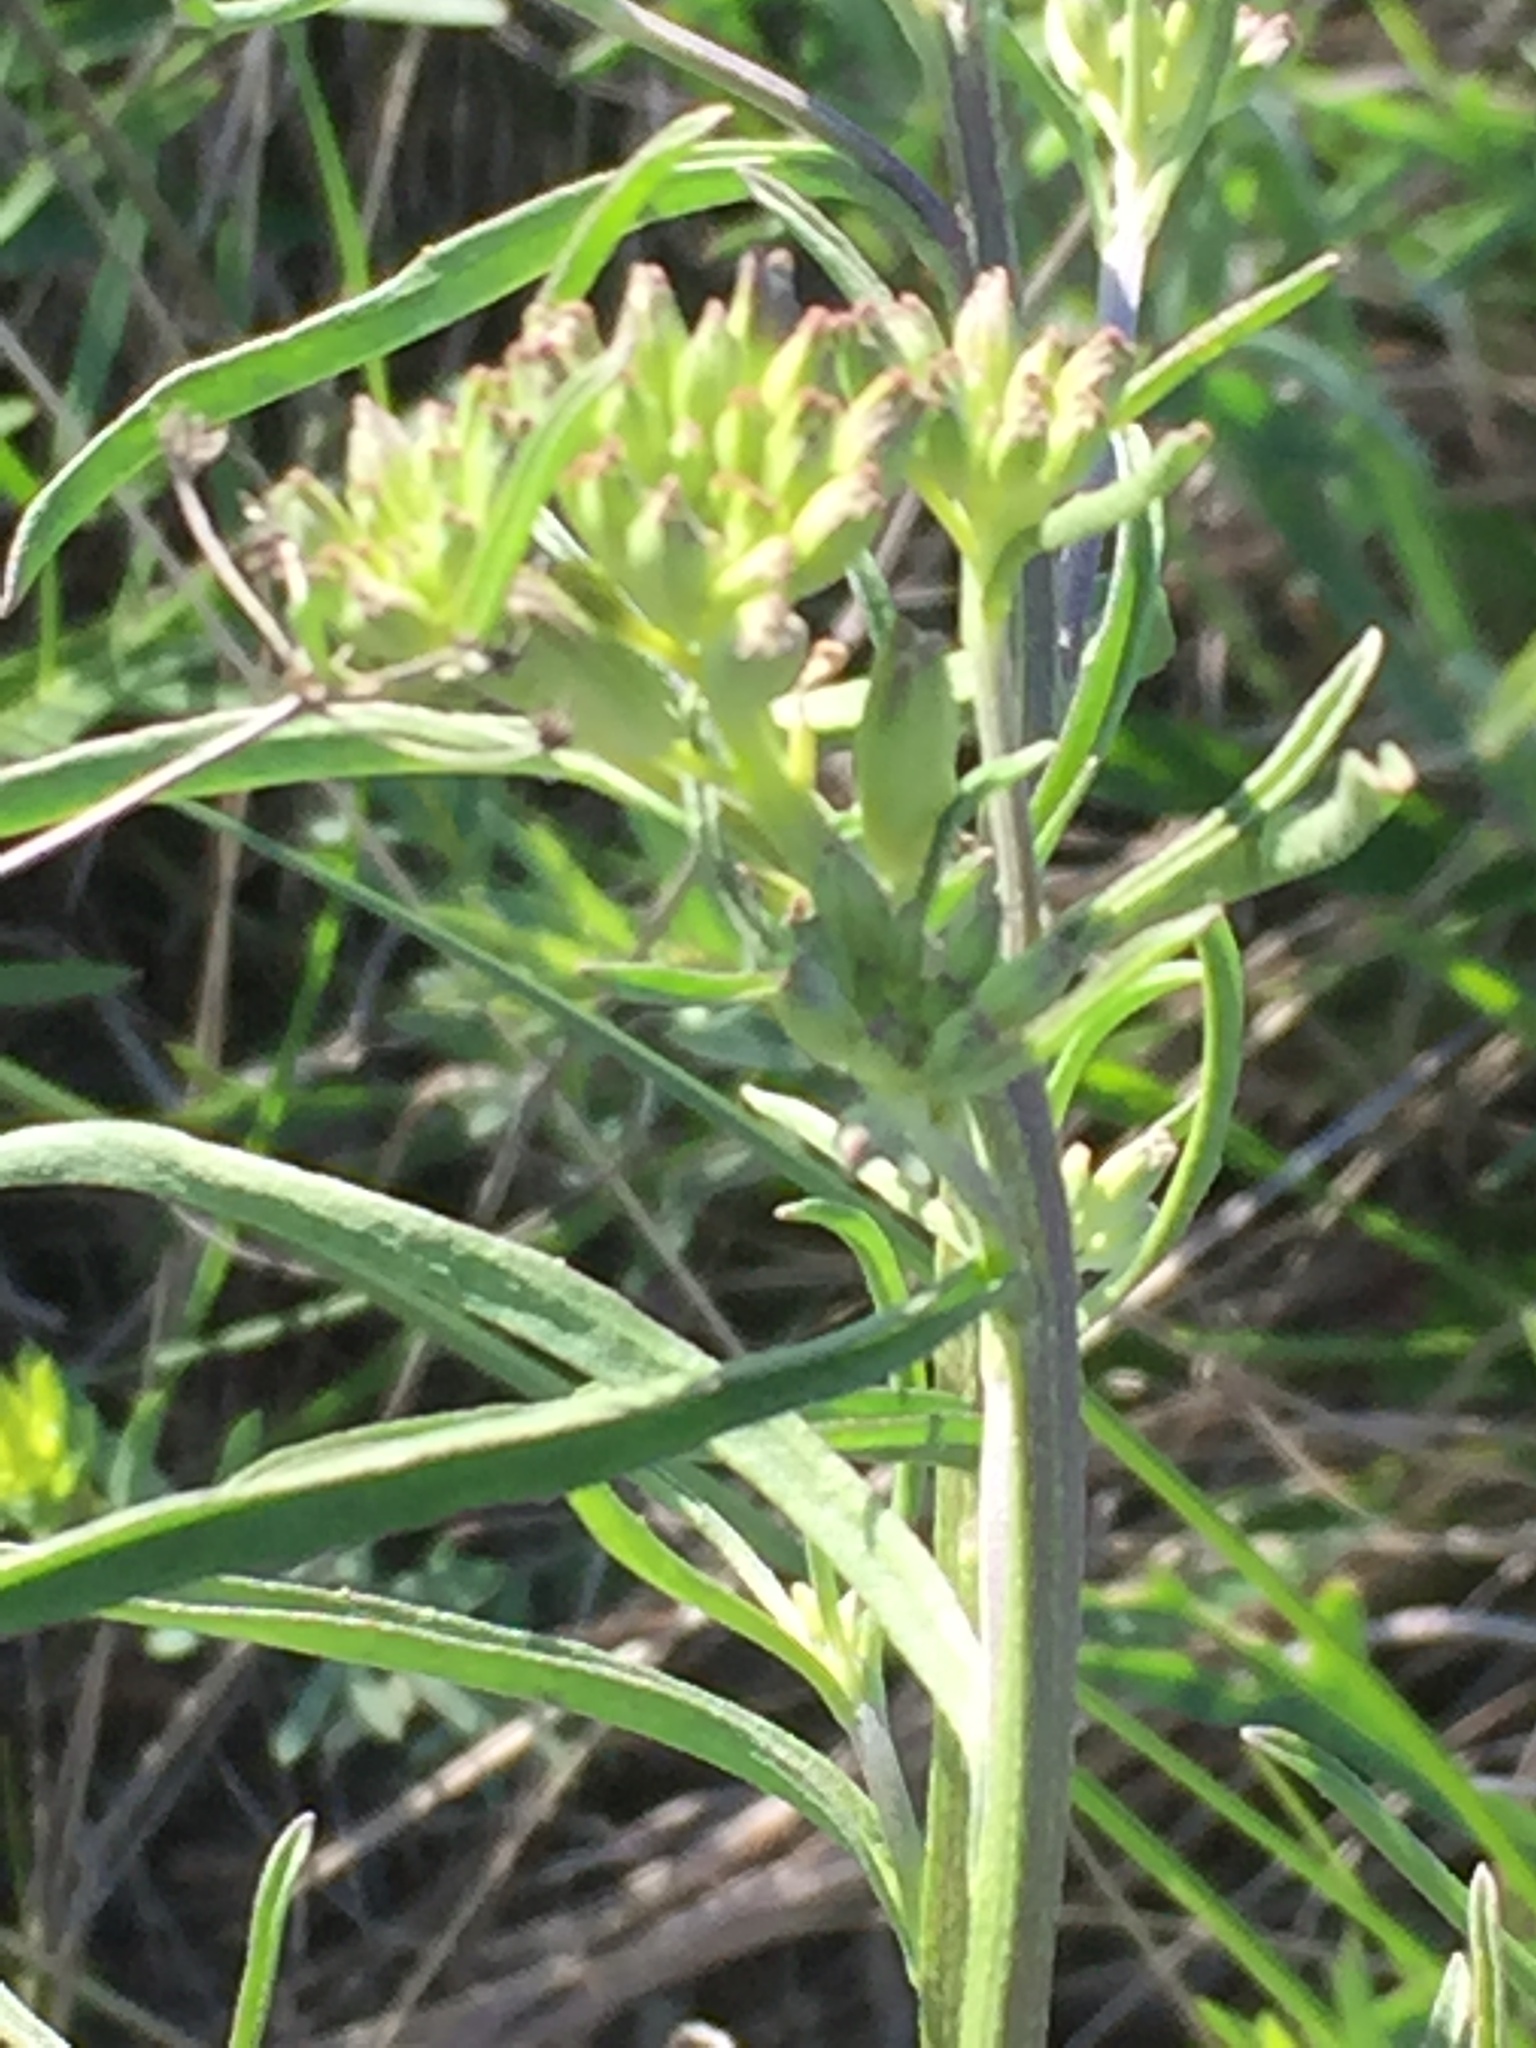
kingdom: Plantae
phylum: Tracheophyta
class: Magnoliopsida
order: Brassicales
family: Brassicaceae
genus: Erysimum
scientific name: Erysimum diffusum
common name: Diffuse wallflower
